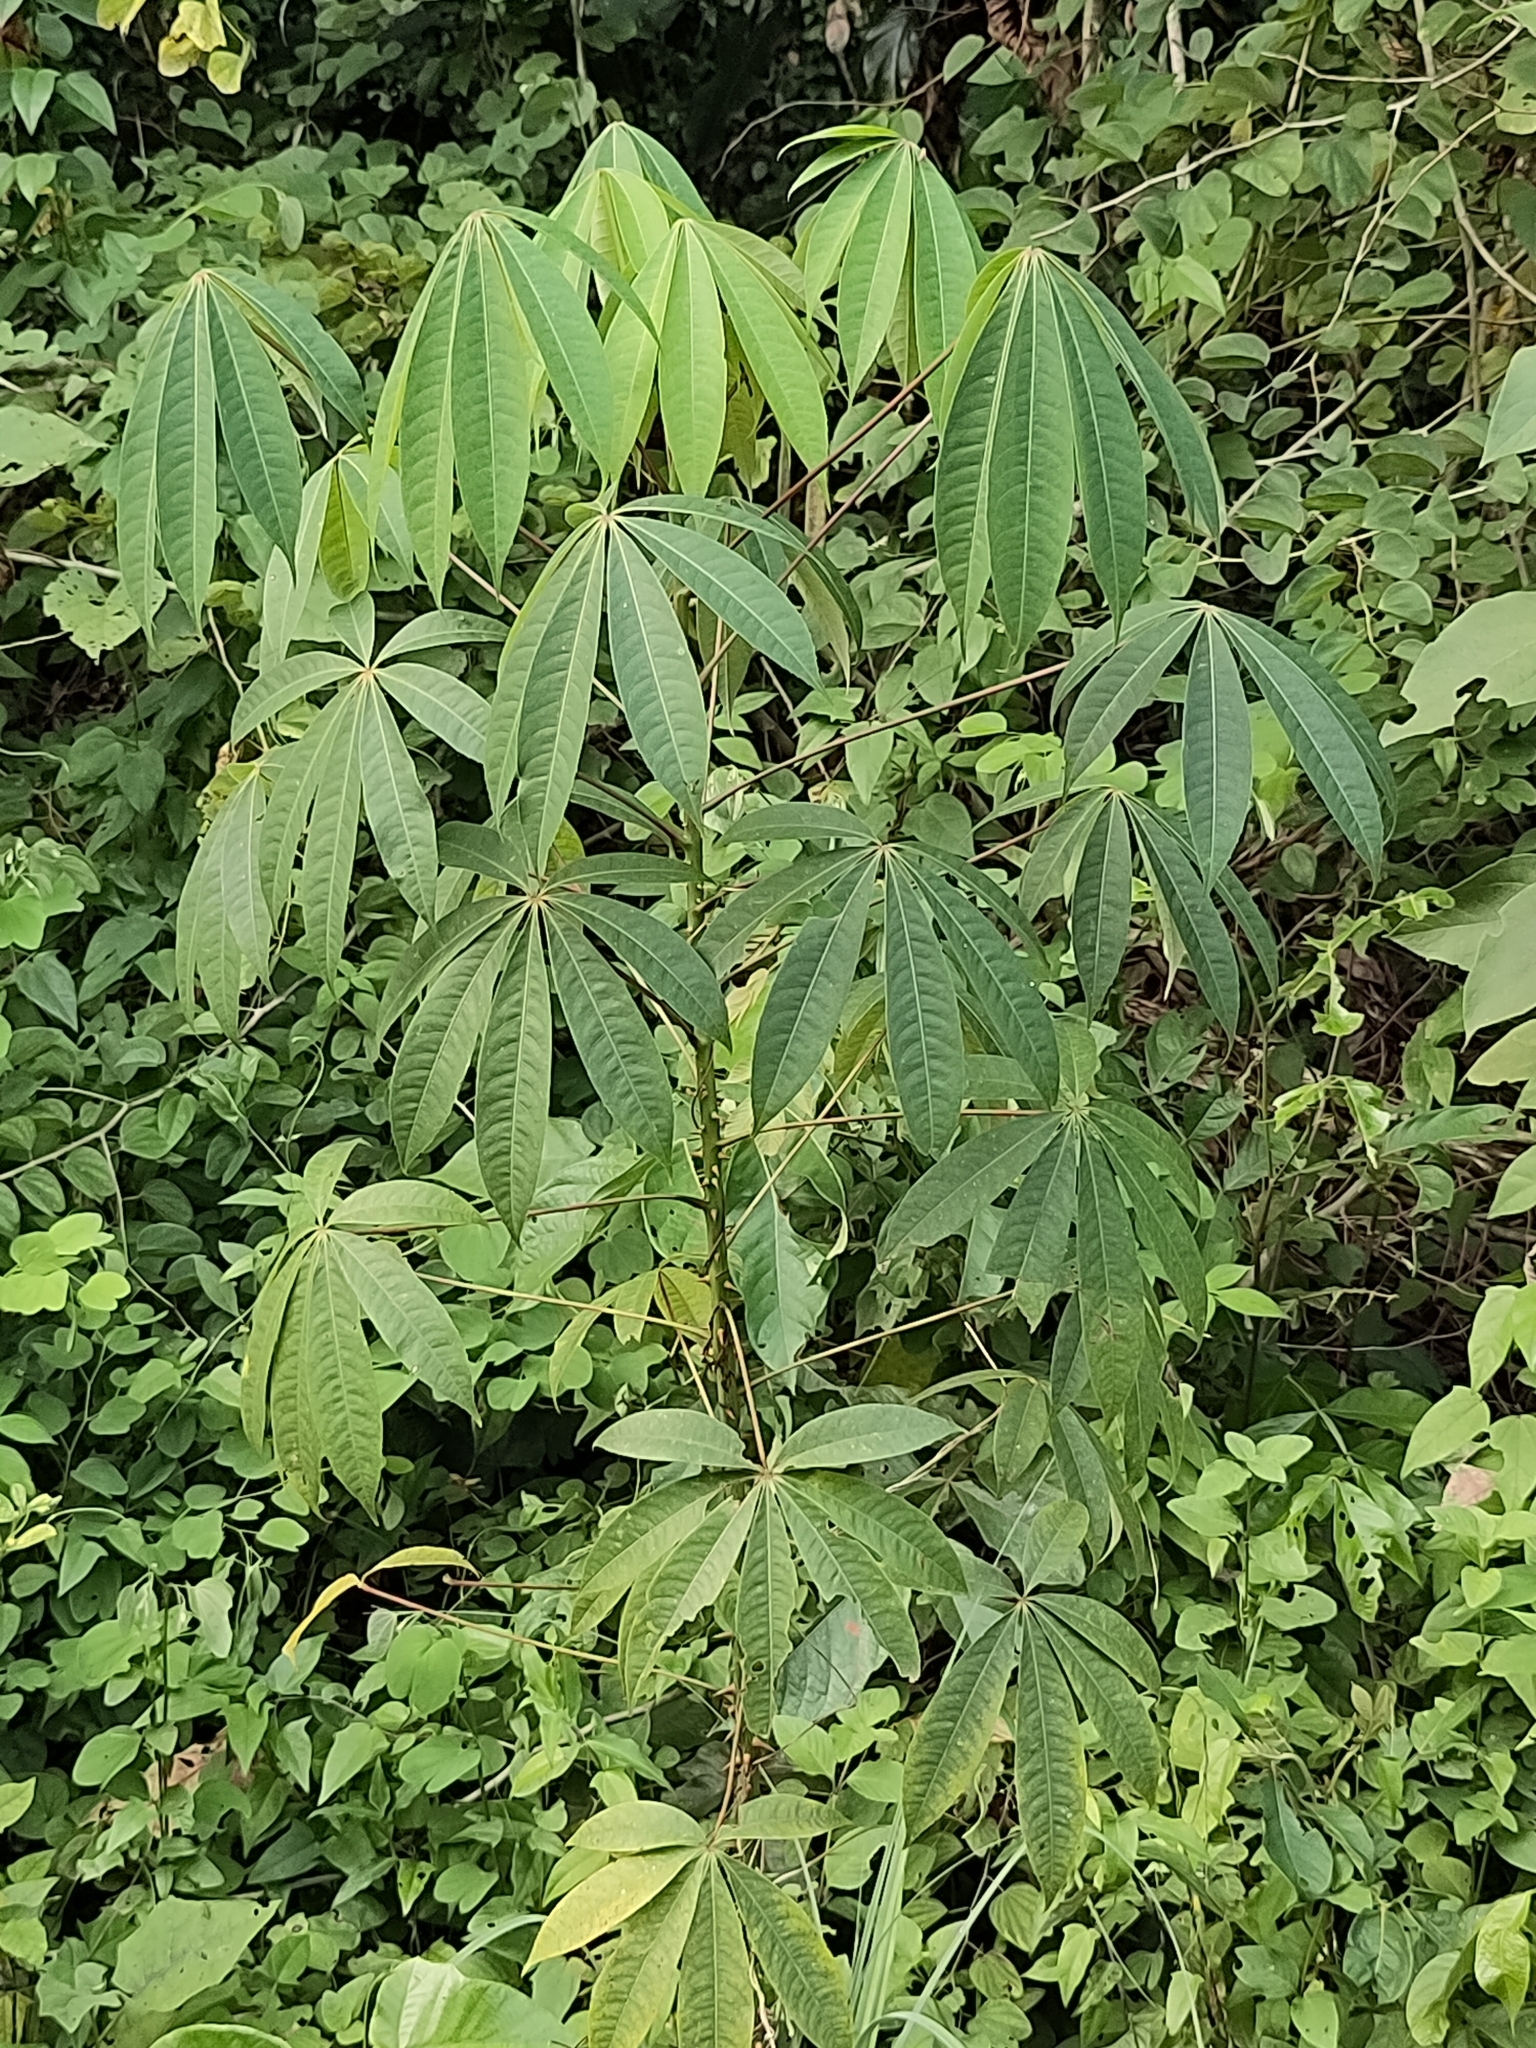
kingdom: Plantae
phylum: Tracheophyta
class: Magnoliopsida
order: Malpighiales
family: Euphorbiaceae
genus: Manihot
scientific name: Manihot esculenta
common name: Cassava
